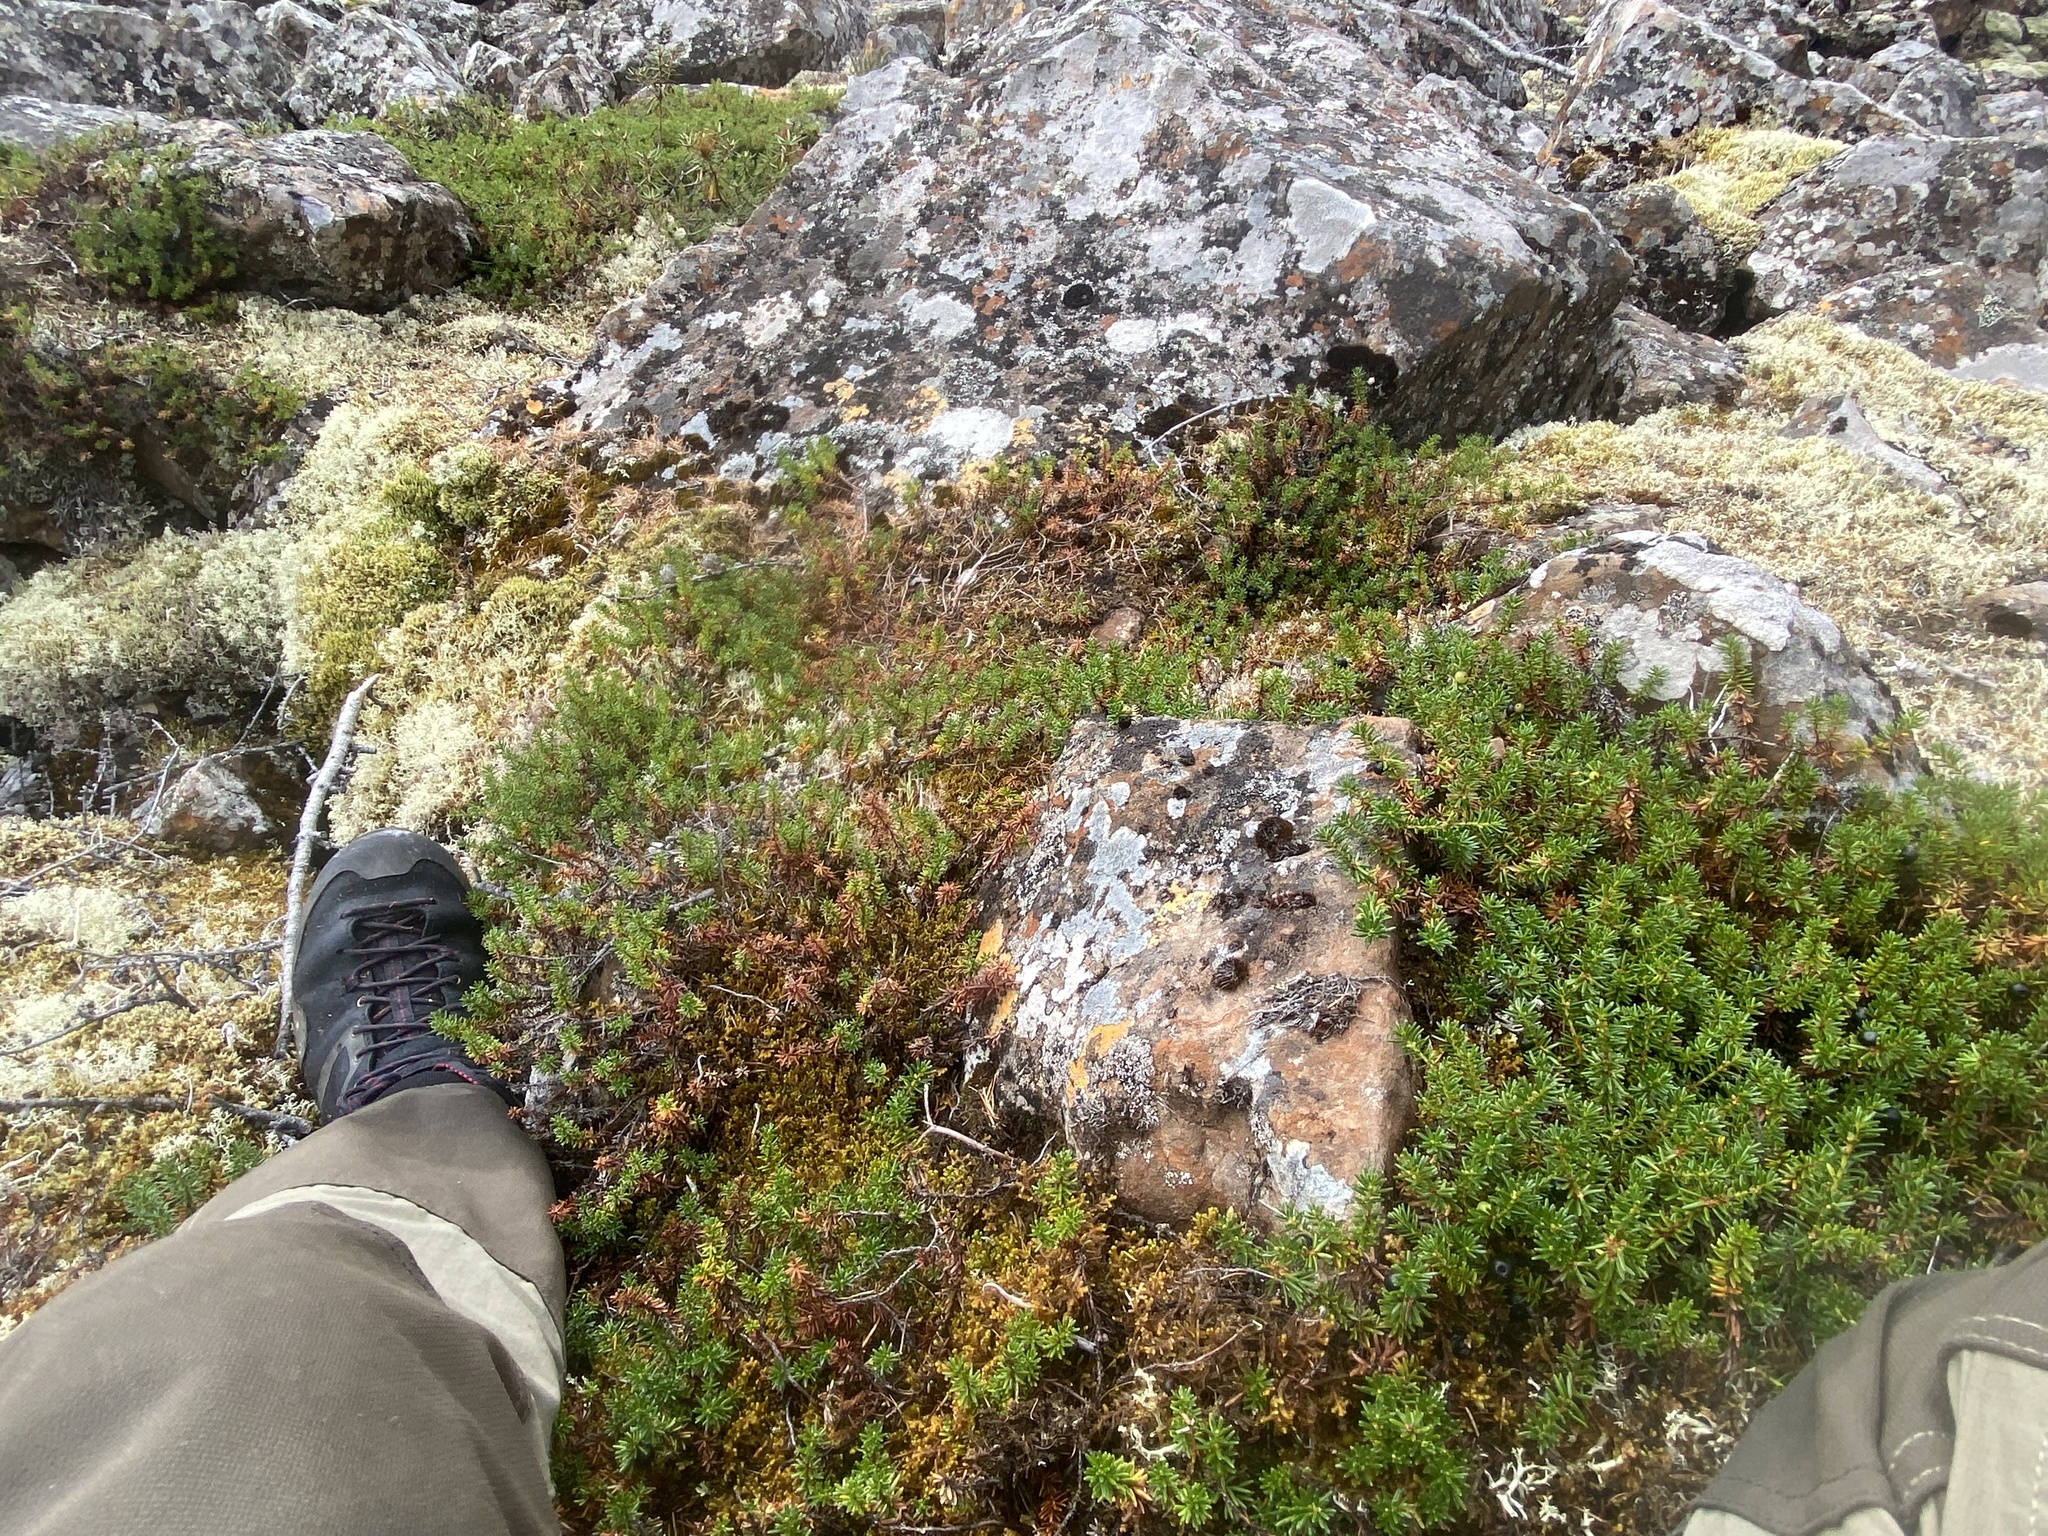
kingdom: Plantae
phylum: Tracheophyta
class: Magnoliopsida
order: Ericales
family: Ericaceae
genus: Empetrum
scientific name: Empetrum nigrum
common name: Black crowberry
